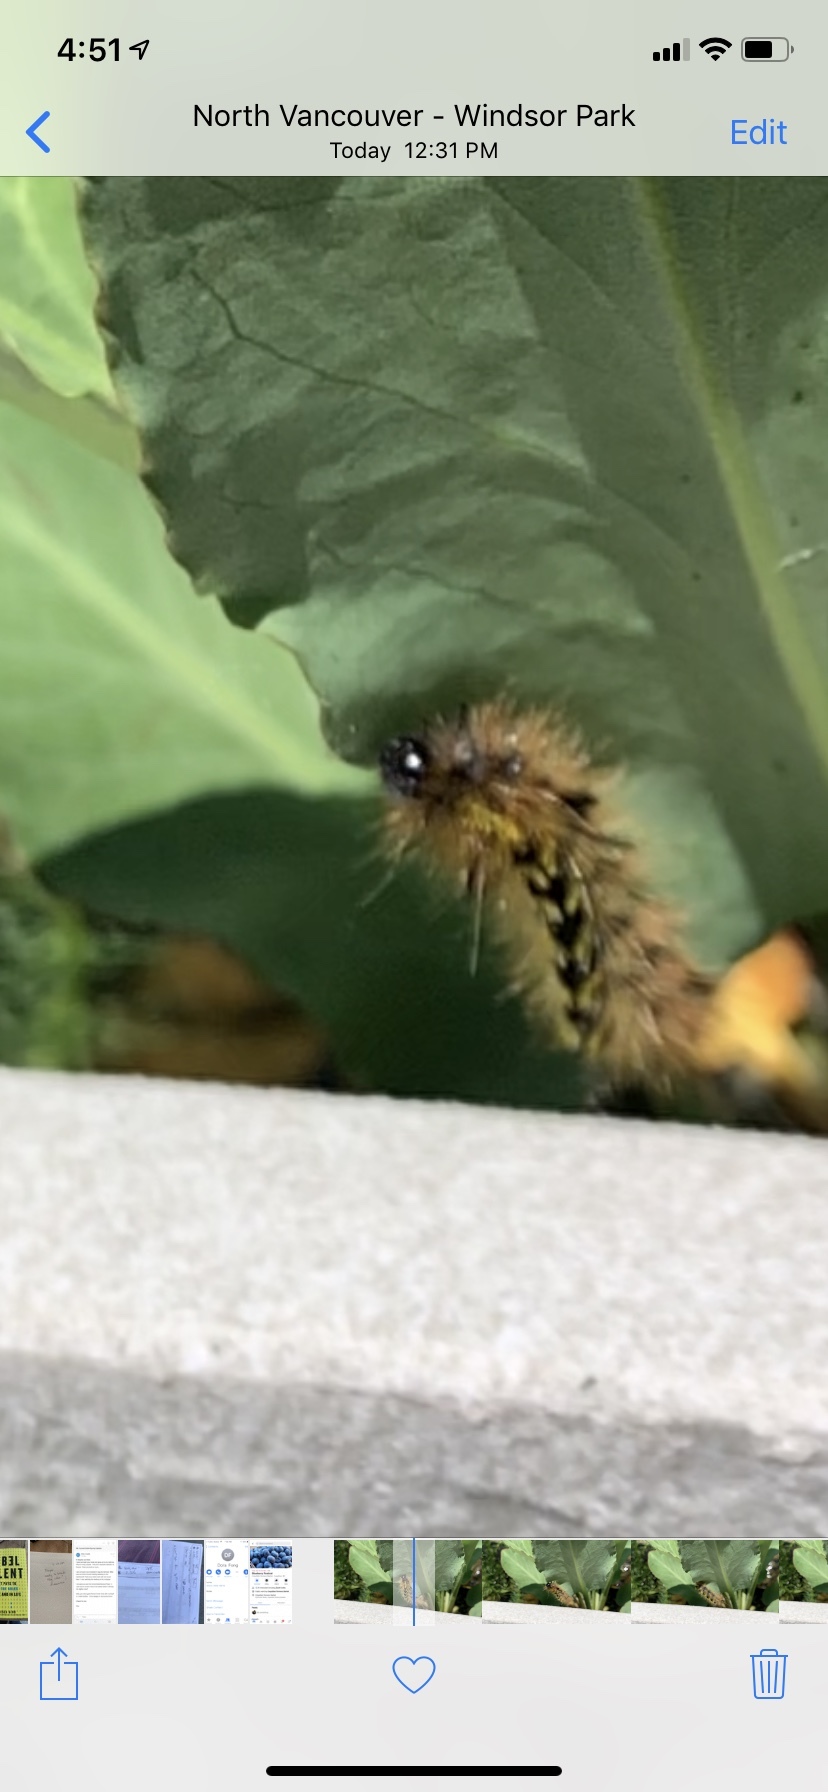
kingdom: Animalia
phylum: Arthropoda
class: Insecta
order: Lepidoptera
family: Erebidae
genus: Lophocampa
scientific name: Lophocampa argentata
